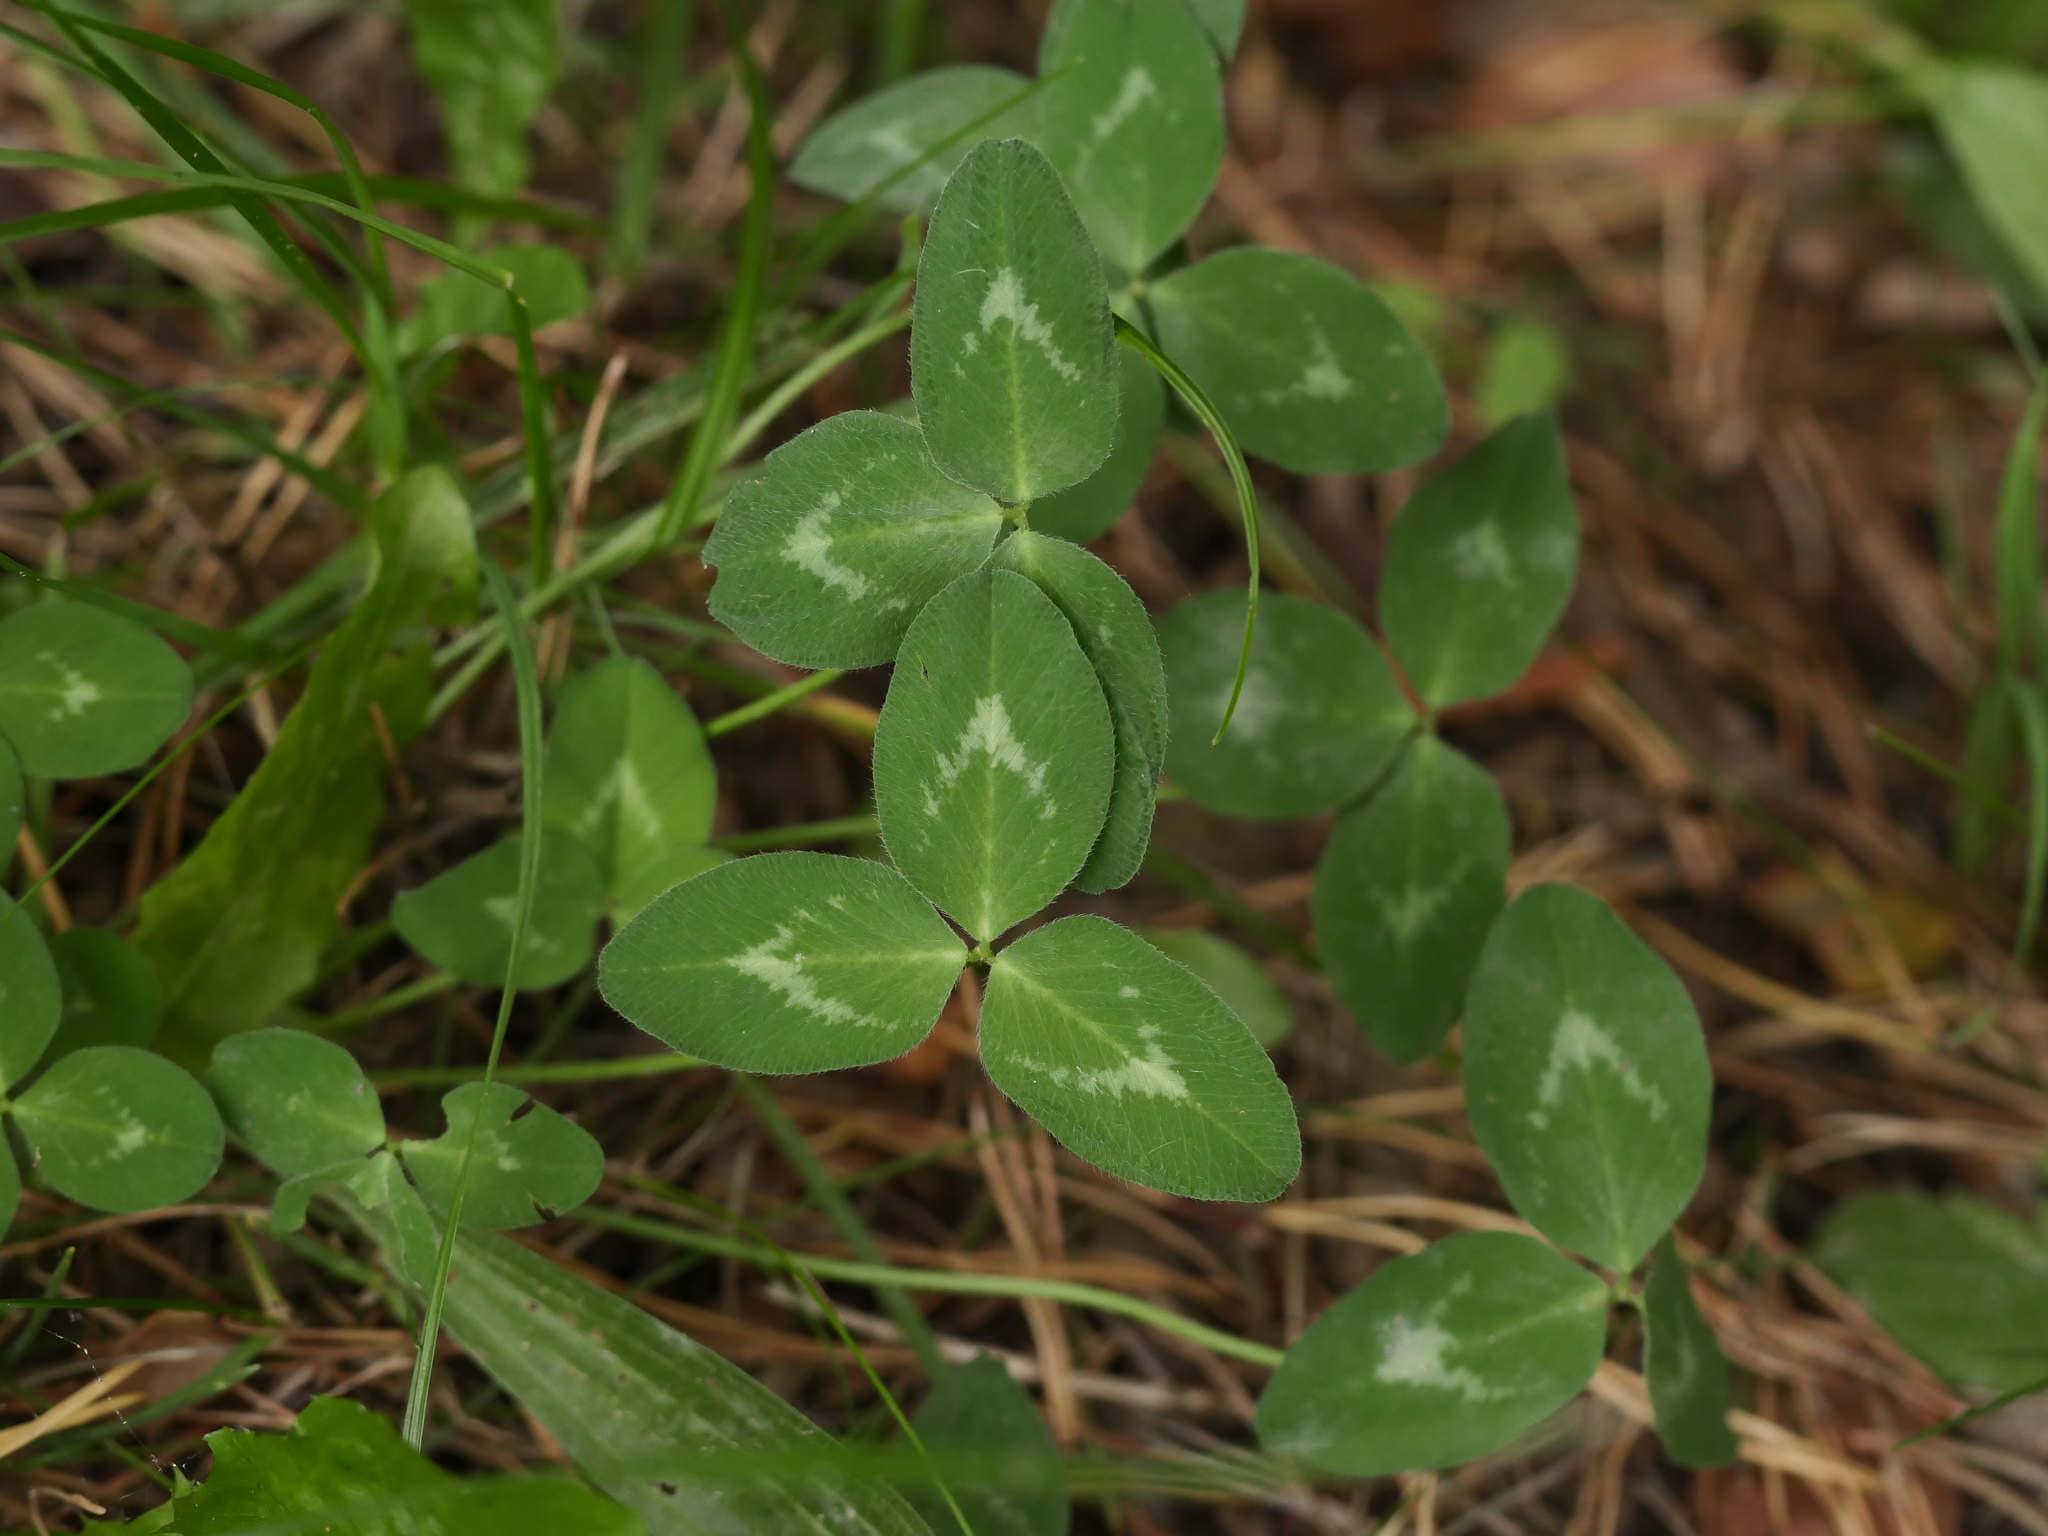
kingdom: Plantae
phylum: Tracheophyta
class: Magnoliopsida
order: Fabales
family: Fabaceae
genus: Trifolium
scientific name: Trifolium pratense
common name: Red clover
